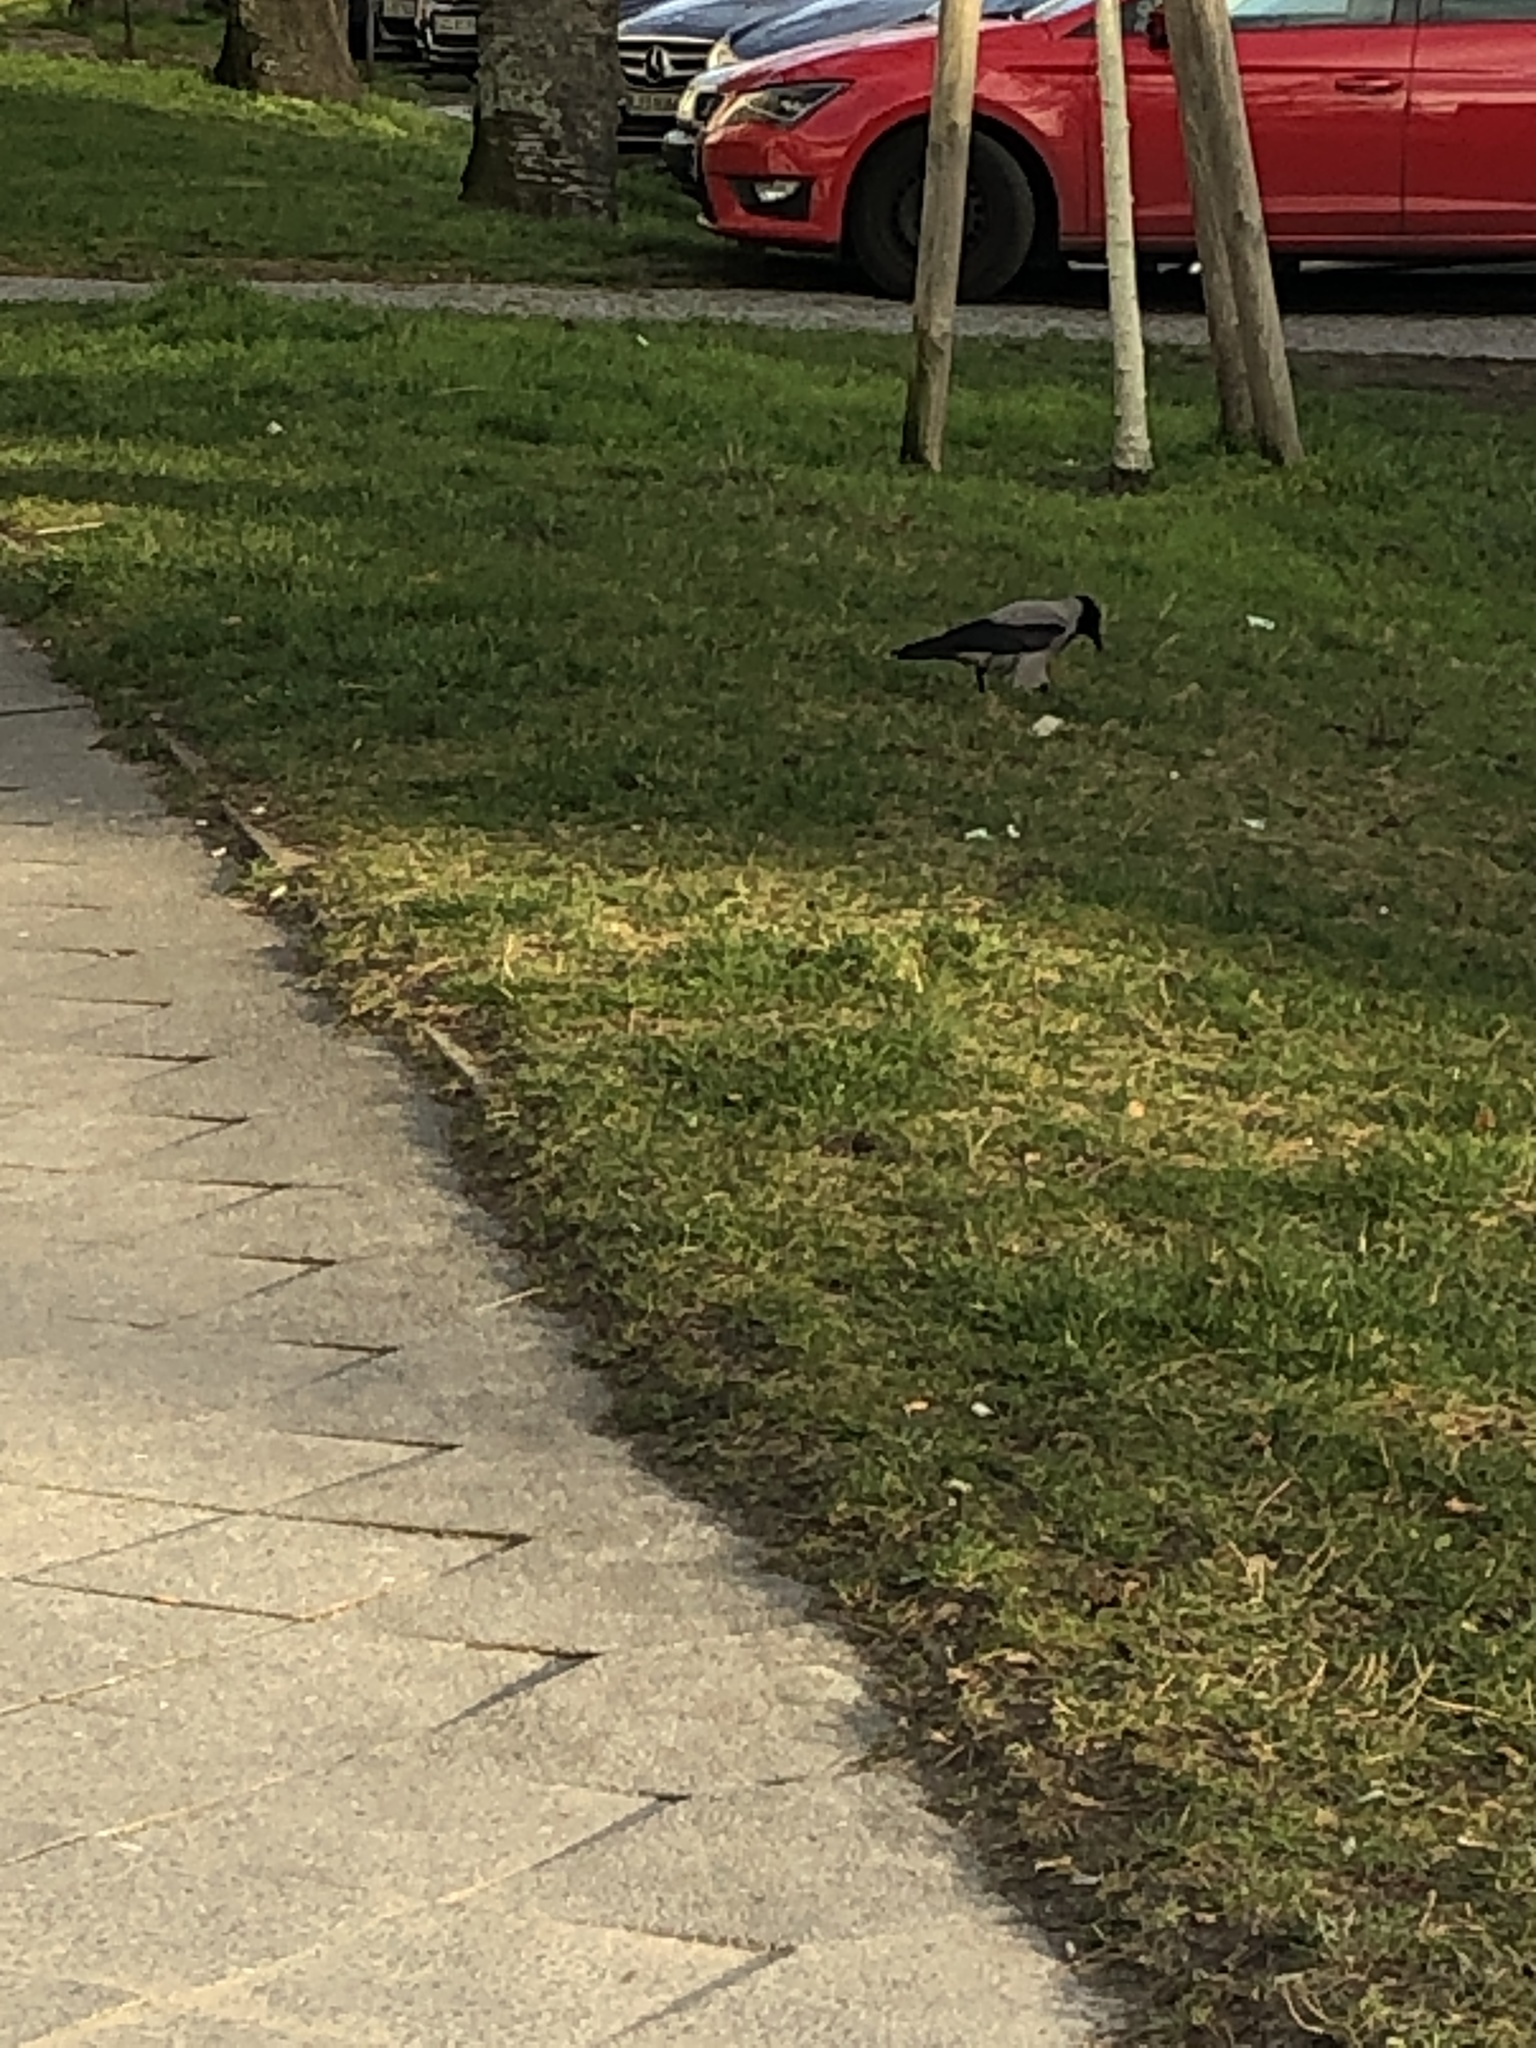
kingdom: Animalia
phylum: Chordata
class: Aves
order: Passeriformes
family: Corvidae
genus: Corvus
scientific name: Corvus cornix
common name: Hooded crow
